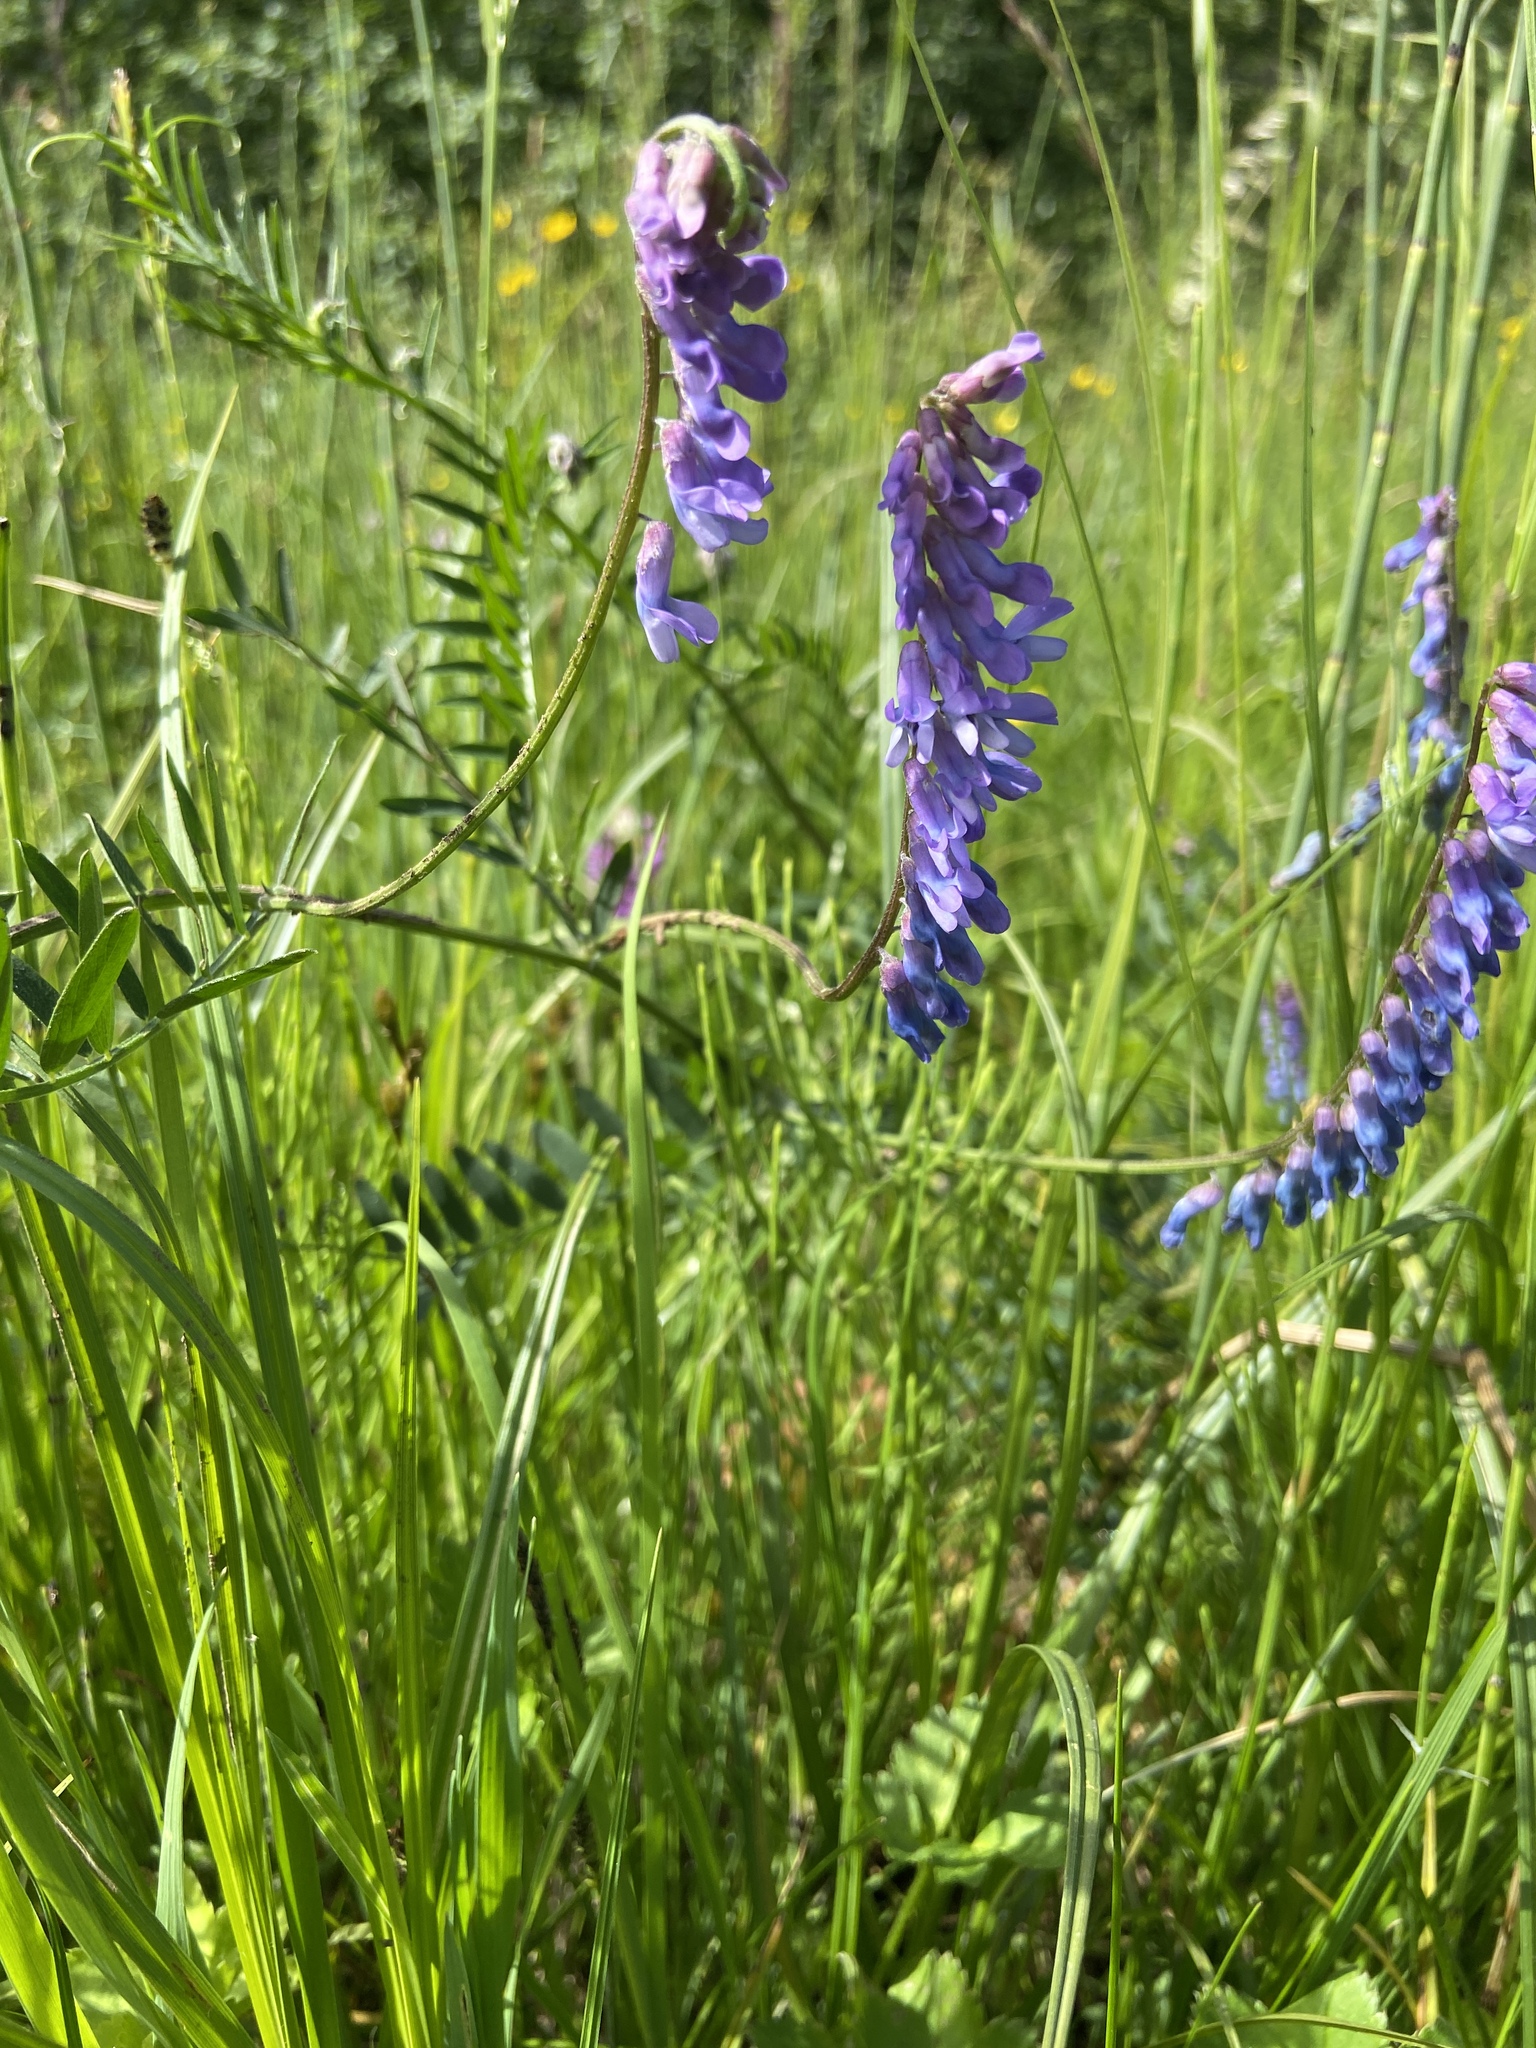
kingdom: Plantae
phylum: Tracheophyta
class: Magnoliopsida
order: Fabales
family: Fabaceae
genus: Vicia
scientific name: Vicia cracca
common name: Bird vetch
